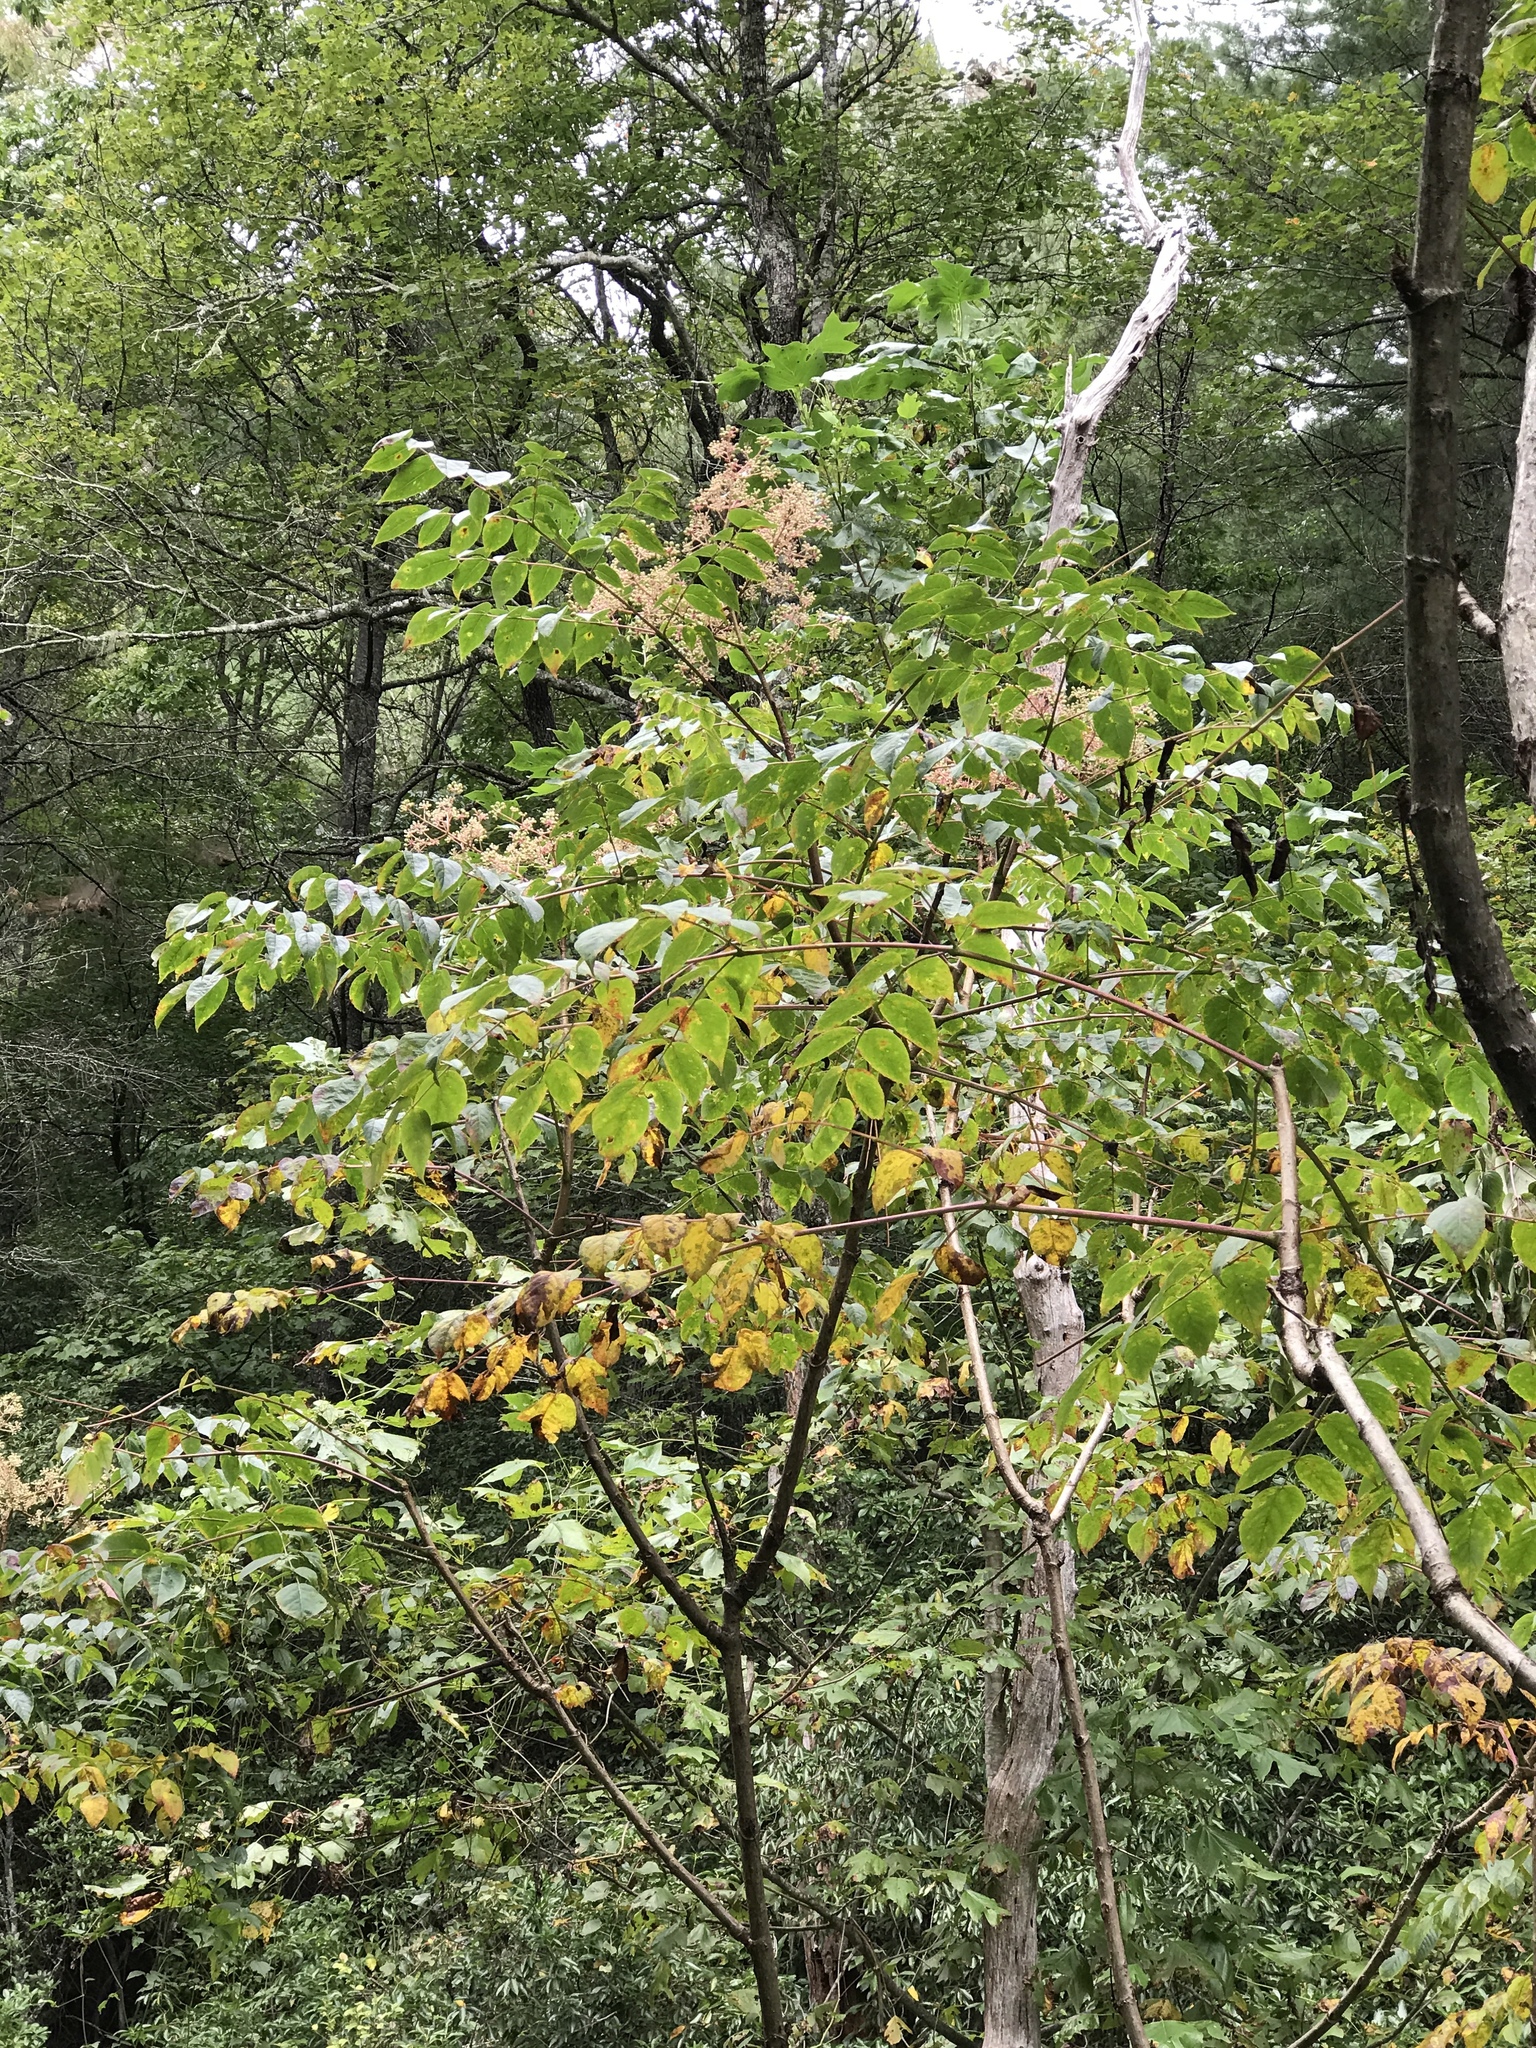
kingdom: Plantae
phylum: Tracheophyta
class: Magnoliopsida
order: Apiales
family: Araliaceae
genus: Aralia
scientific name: Aralia spinosa
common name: Hercules'-club
